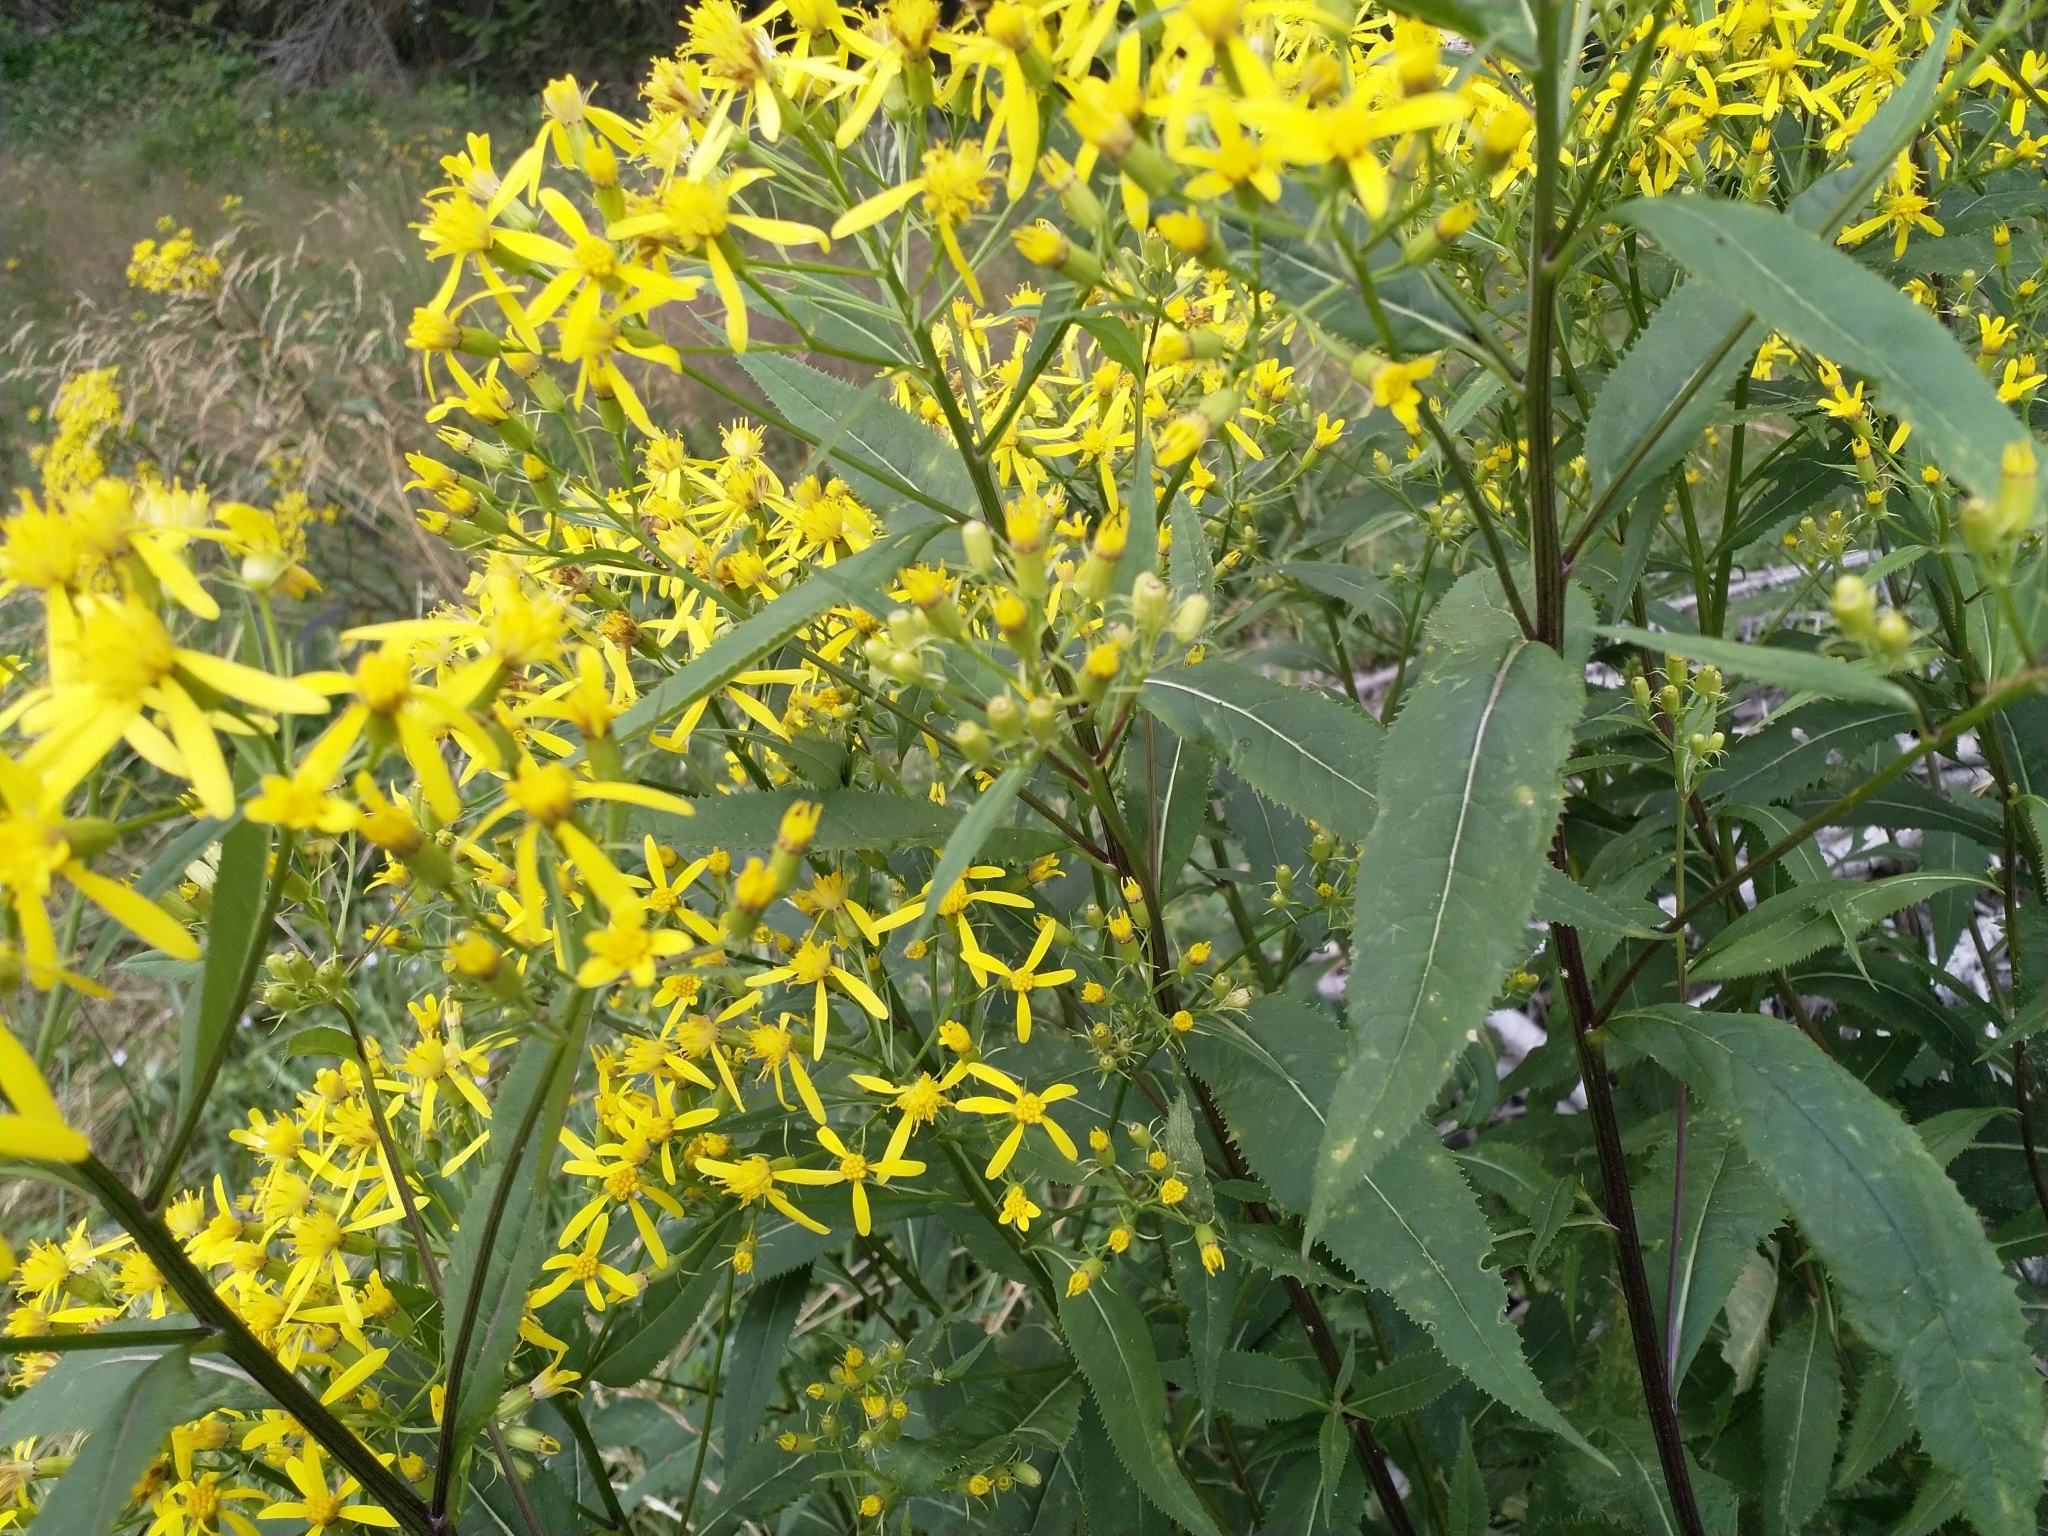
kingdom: Plantae
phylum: Tracheophyta
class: Magnoliopsida
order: Asterales
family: Asteraceae
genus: Senecio
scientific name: Senecio ovatus
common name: Wood ragwort
